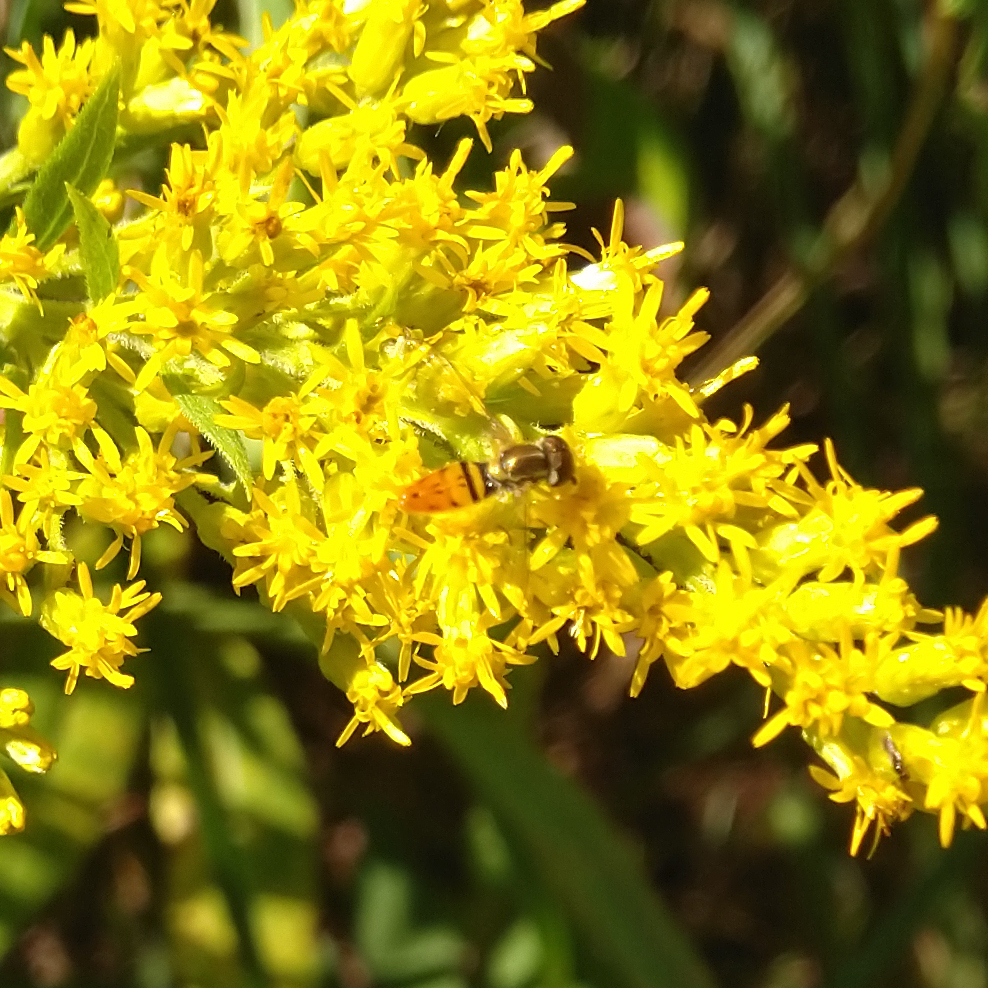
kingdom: Animalia
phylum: Arthropoda
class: Insecta
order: Diptera
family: Syrphidae
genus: Toxomerus
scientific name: Toxomerus marginatus
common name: Syrphid fly
